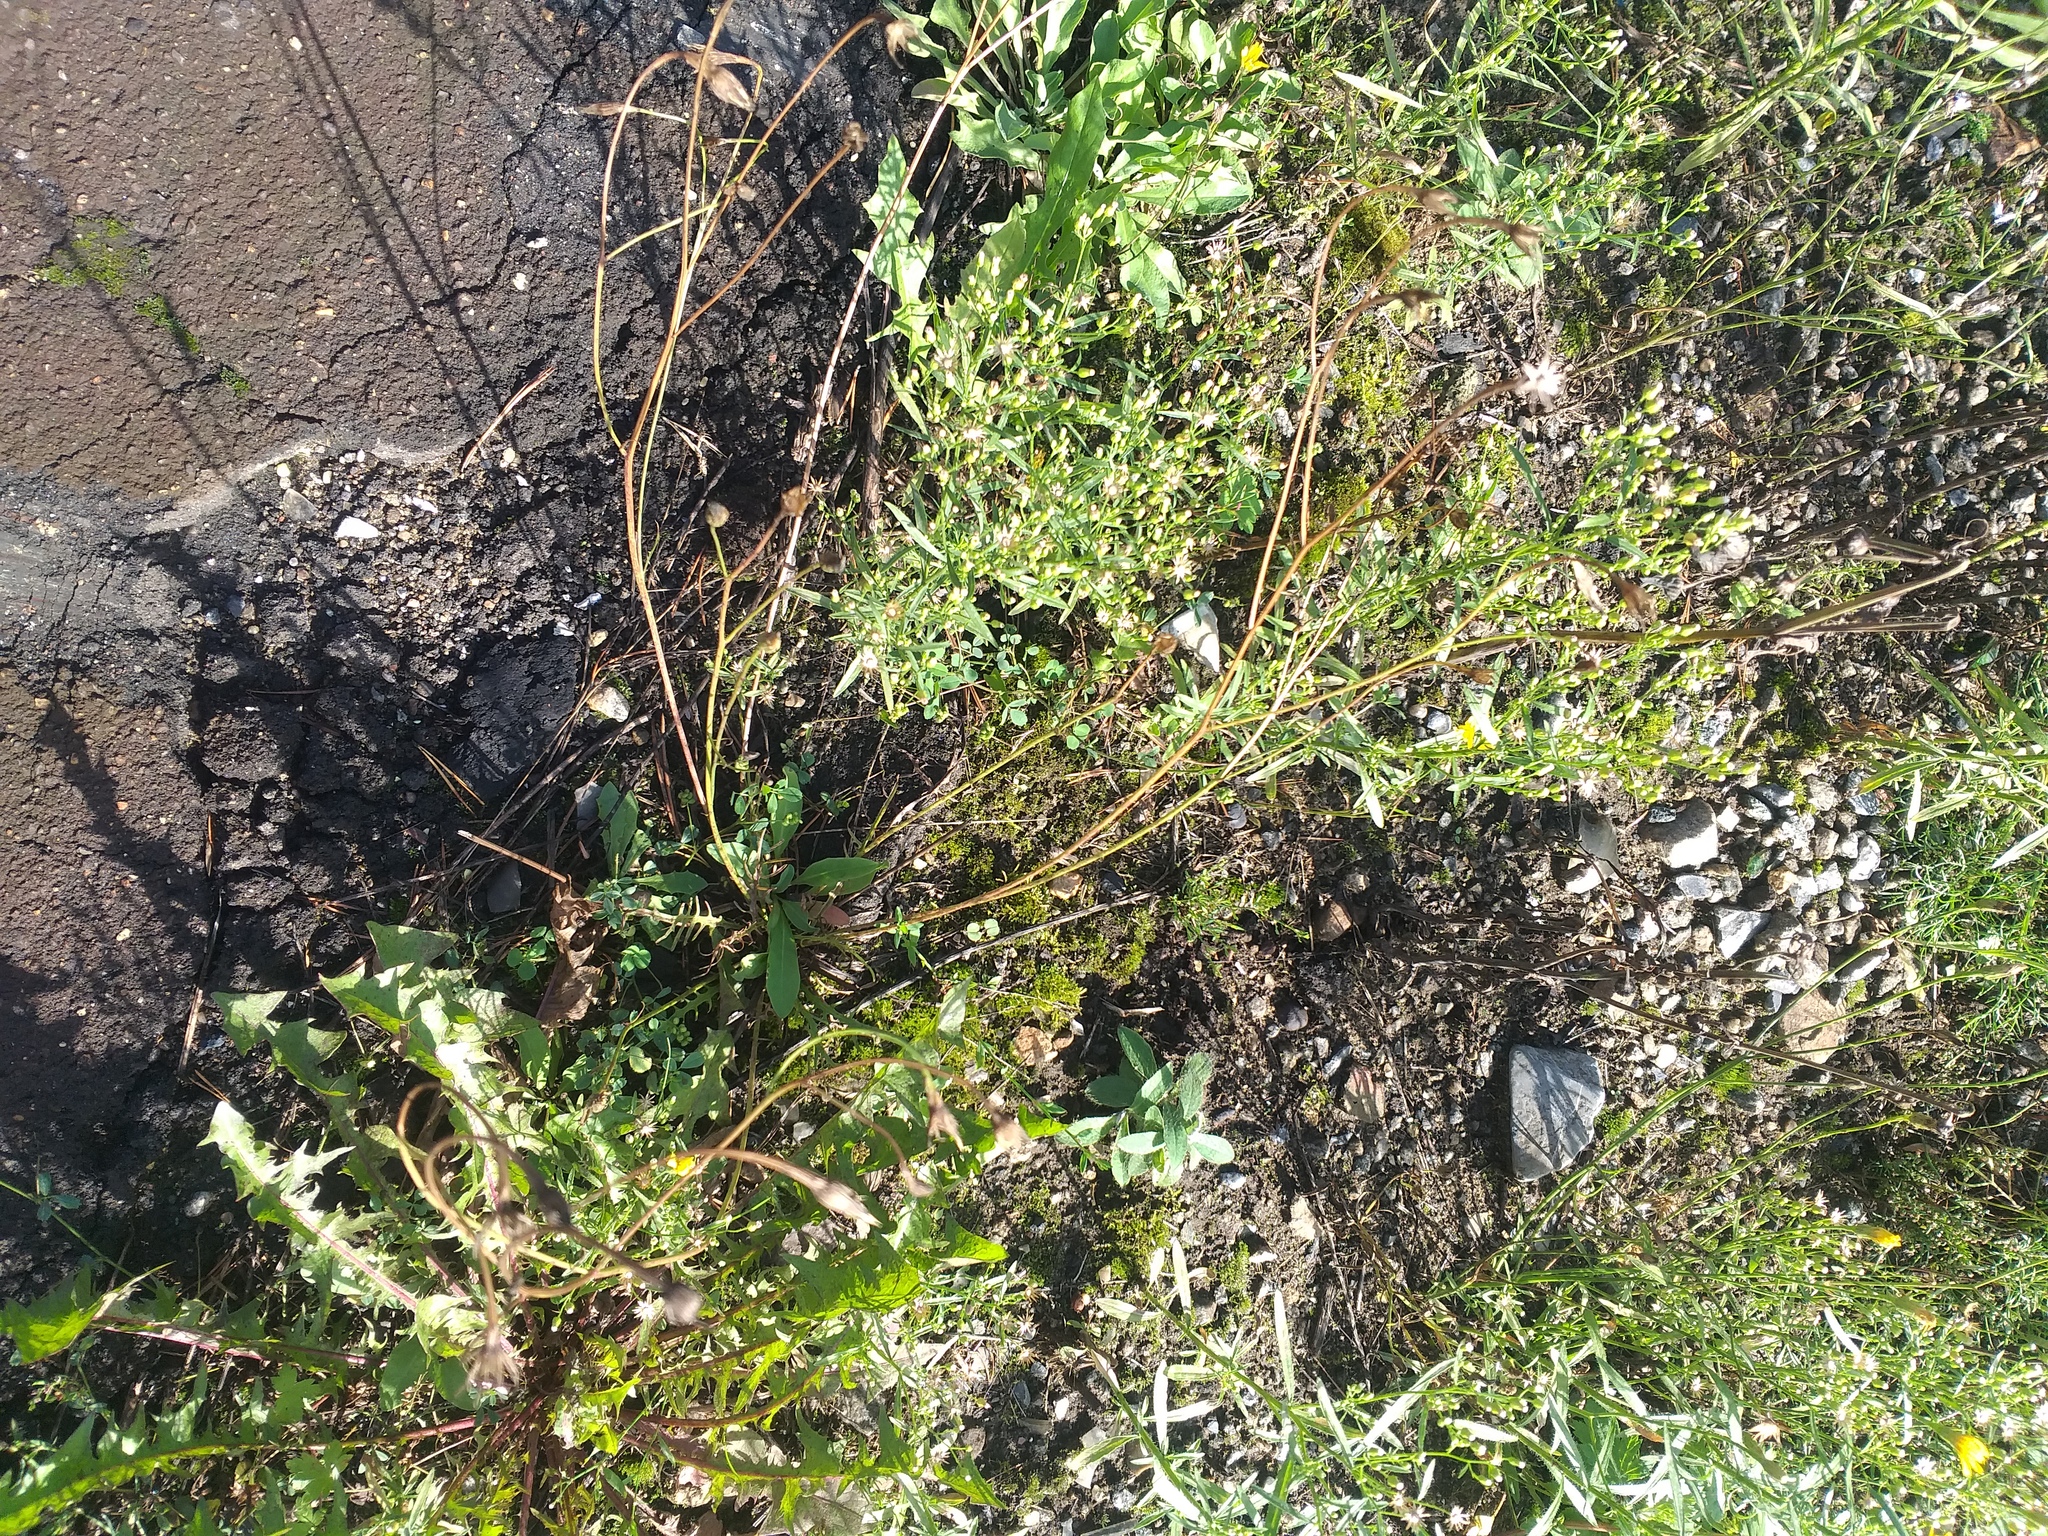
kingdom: Plantae
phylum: Tracheophyta
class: Magnoliopsida
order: Asterales
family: Asteraceae
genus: Scorzoneroides
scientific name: Scorzoneroides autumnalis
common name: Autumn hawkbit
